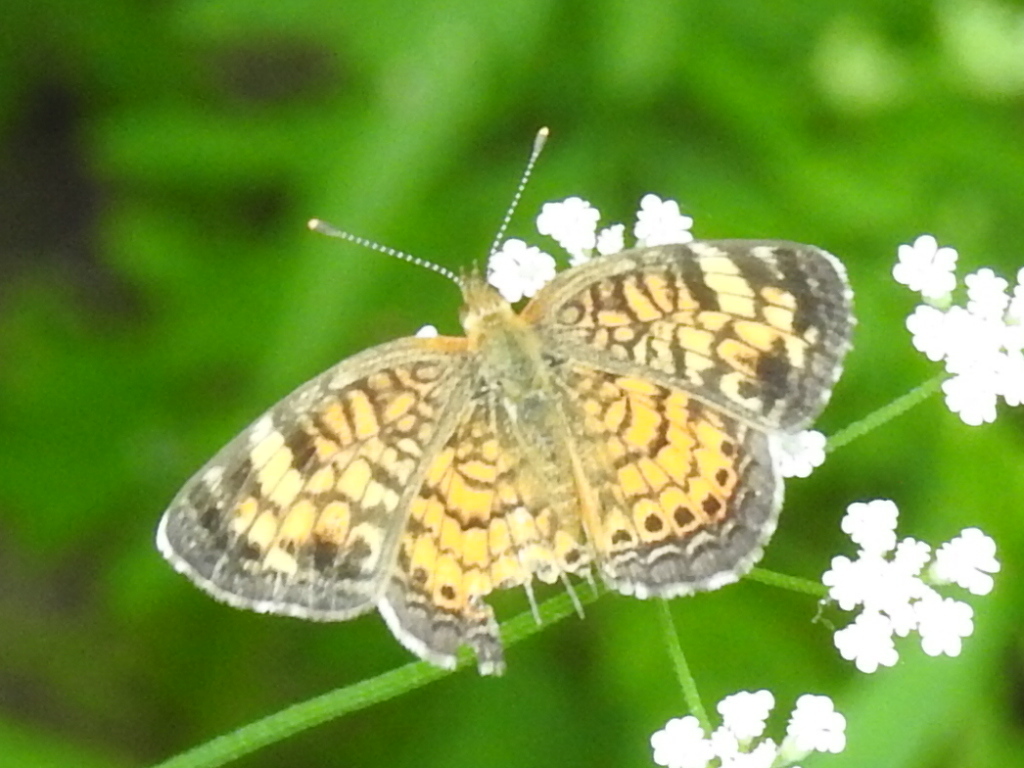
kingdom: Animalia
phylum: Arthropoda
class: Insecta
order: Lepidoptera
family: Nymphalidae
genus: Phyciodes
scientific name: Phyciodes tharos
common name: Pearl crescent
